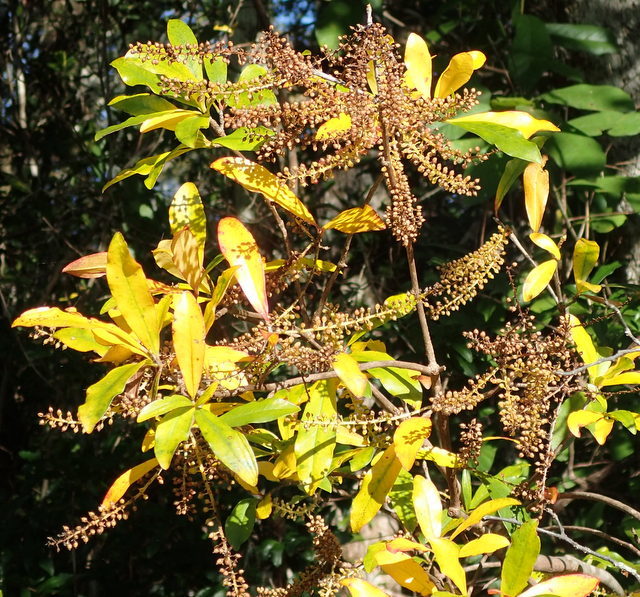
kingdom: Plantae
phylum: Tracheophyta
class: Magnoliopsida
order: Ericales
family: Cyrillaceae
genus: Cyrilla
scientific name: Cyrilla racemiflora
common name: Black titi
